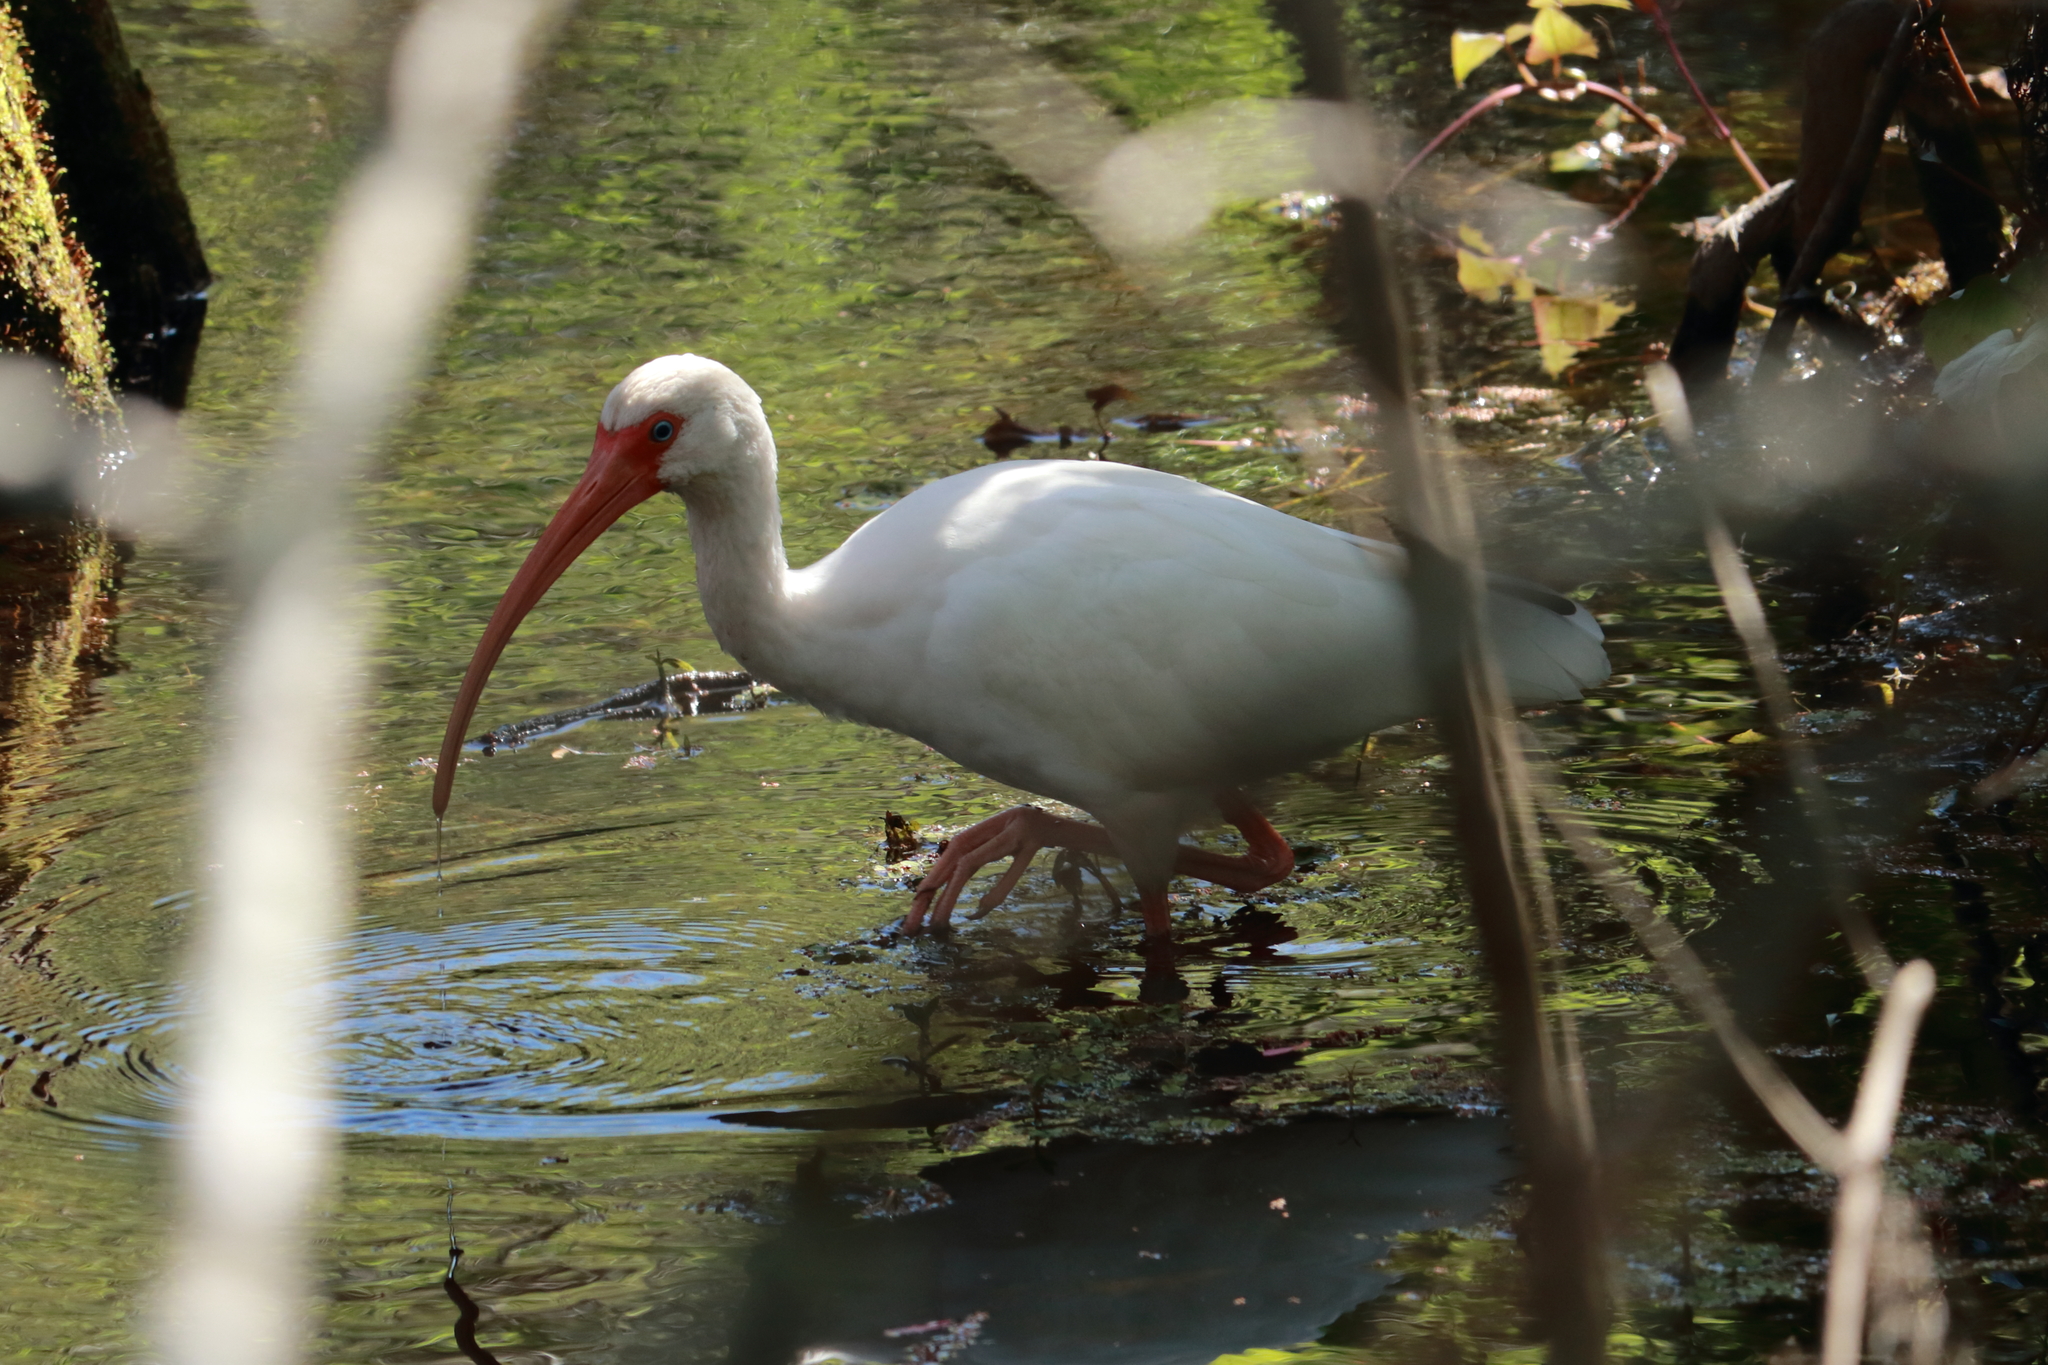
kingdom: Animalia
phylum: Chordata
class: Aves
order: Pelecaniformes
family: Threskiornithidae
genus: Eudocimus
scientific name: Eudocimus albus
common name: White ibis
